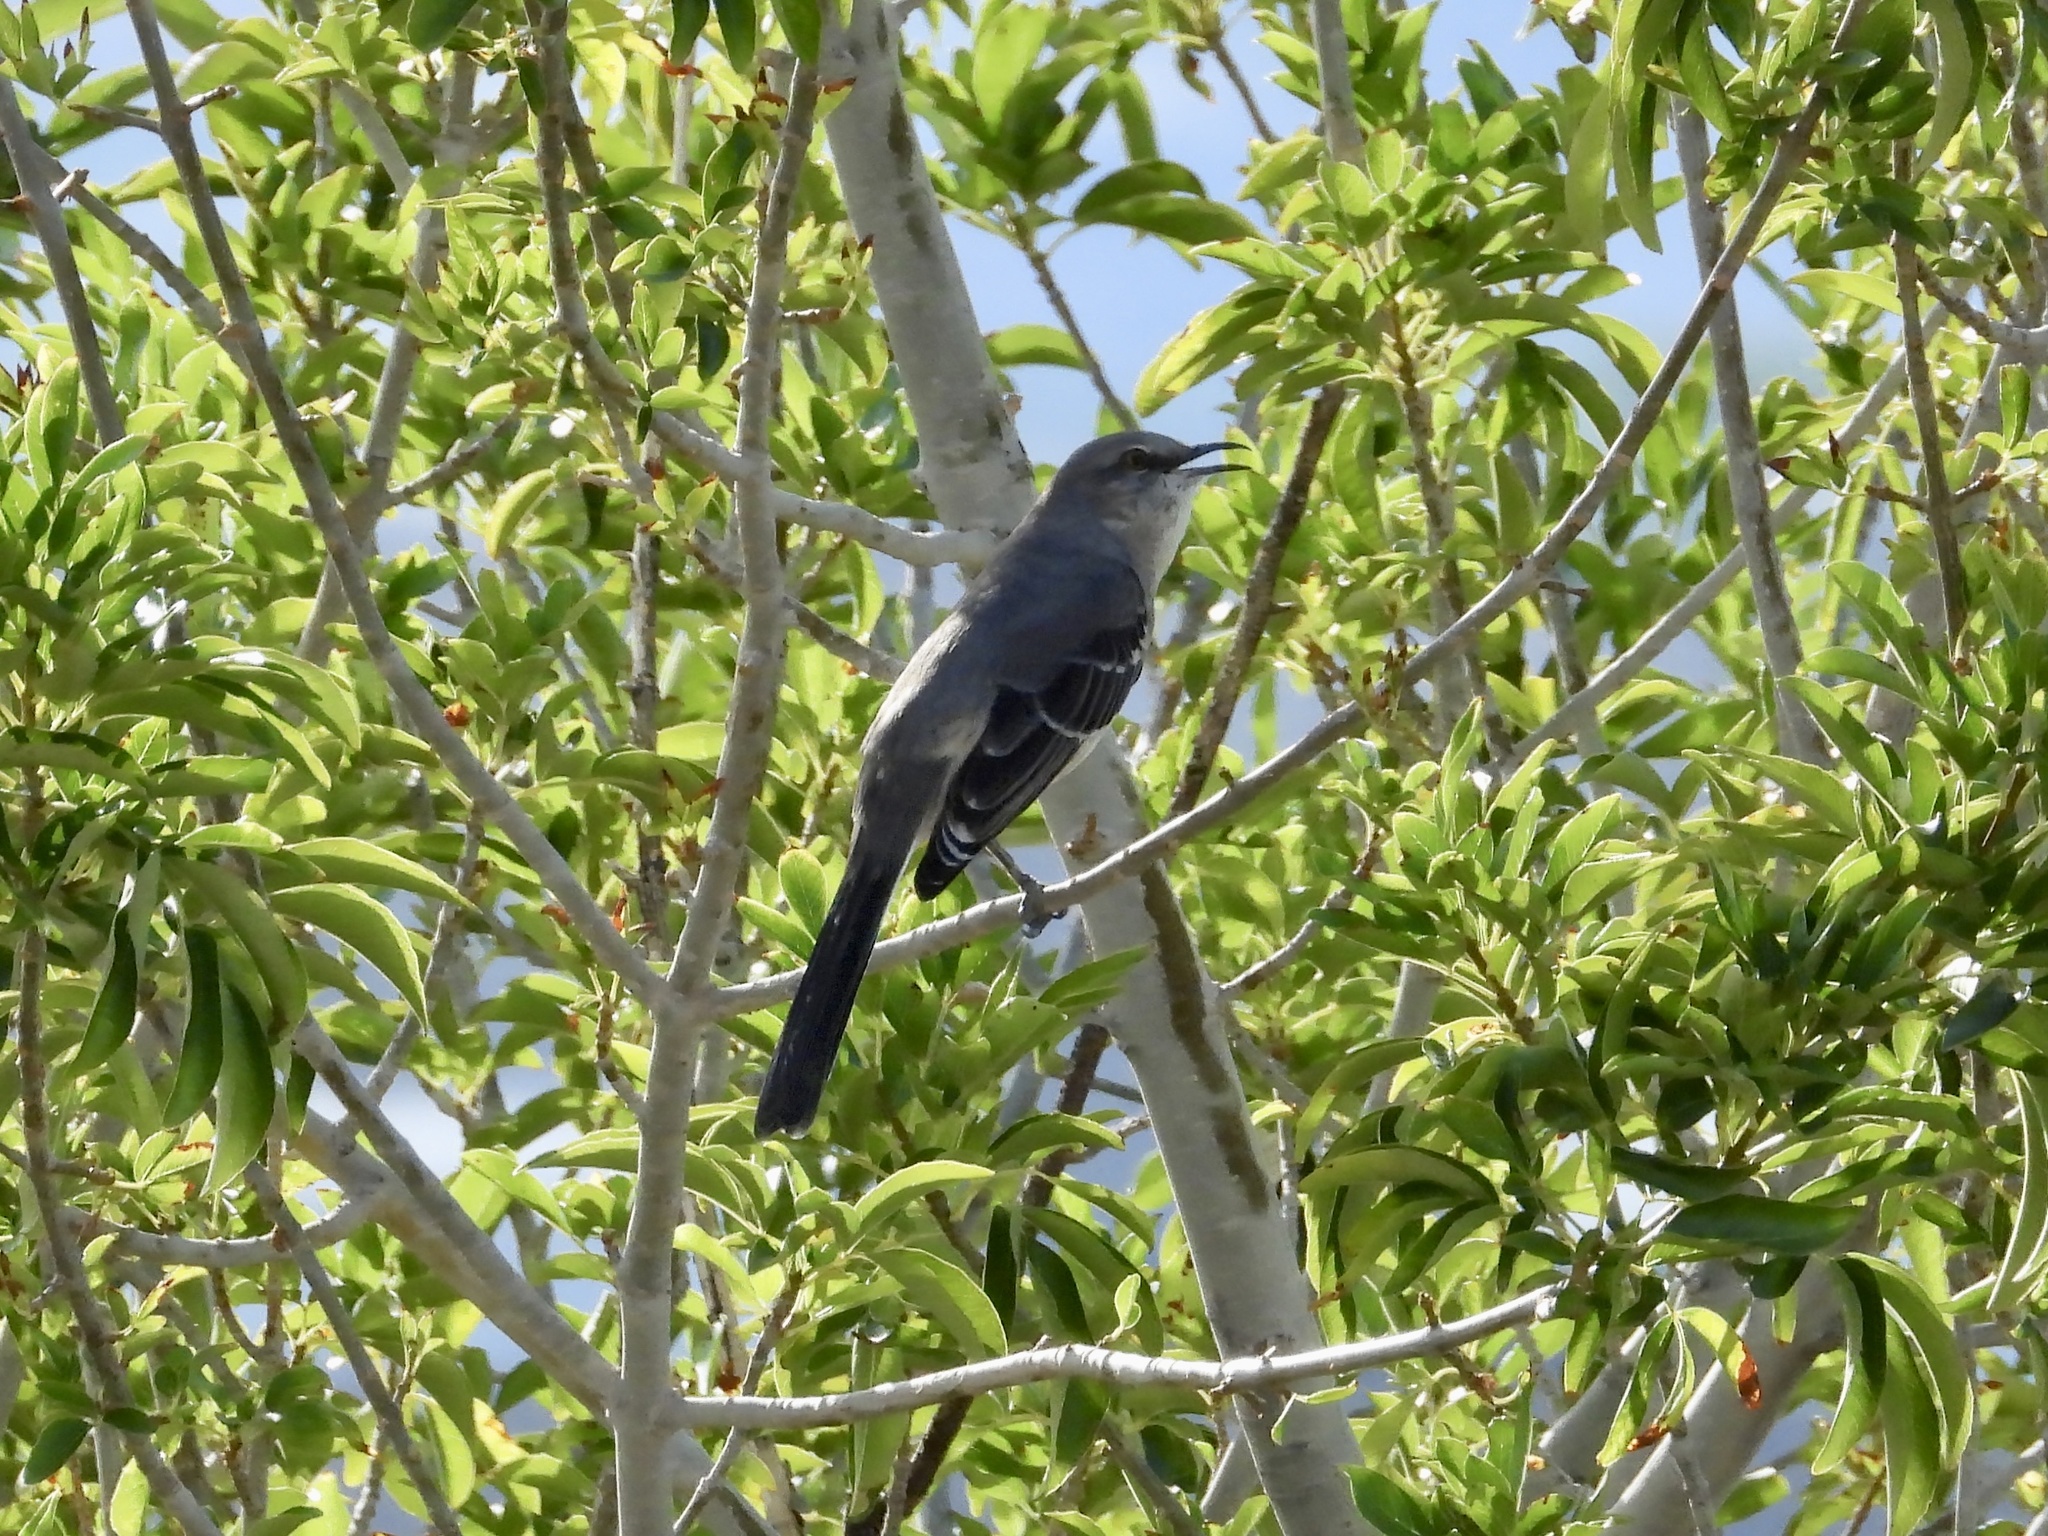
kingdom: Animalia
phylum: Chordata
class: Aves
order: Passeriformes
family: Mimidae
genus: Mimus
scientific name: Mimus polyglottos
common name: Northern mockingbird
